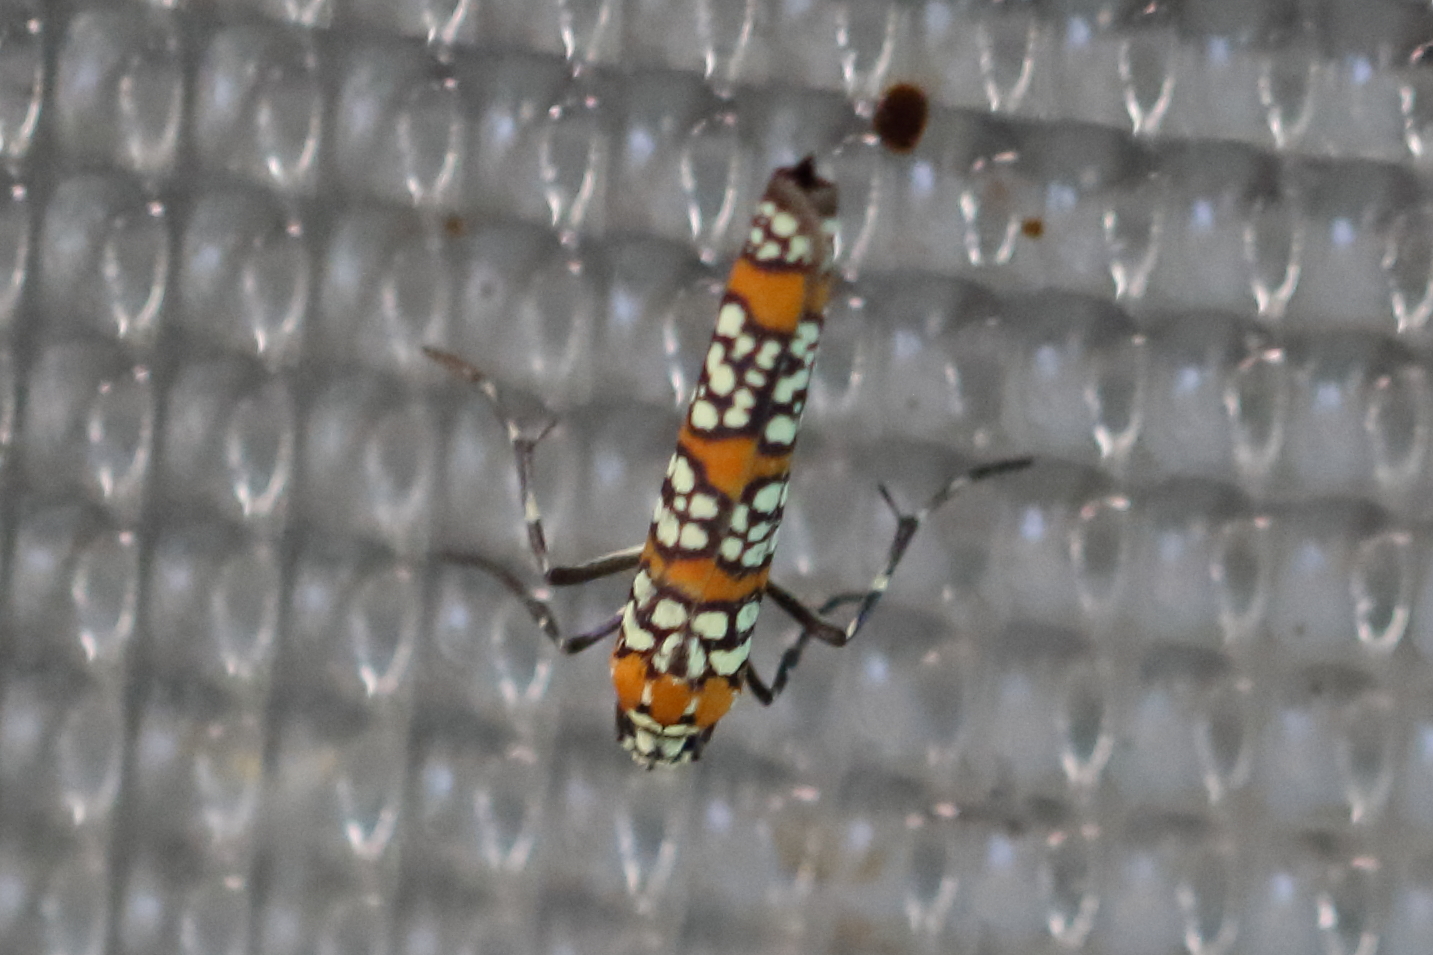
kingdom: Animalia
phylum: Arthropoda
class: Insecta
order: Lepidoptera
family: Attevidae
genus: Atteva
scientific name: Atteva punctella
